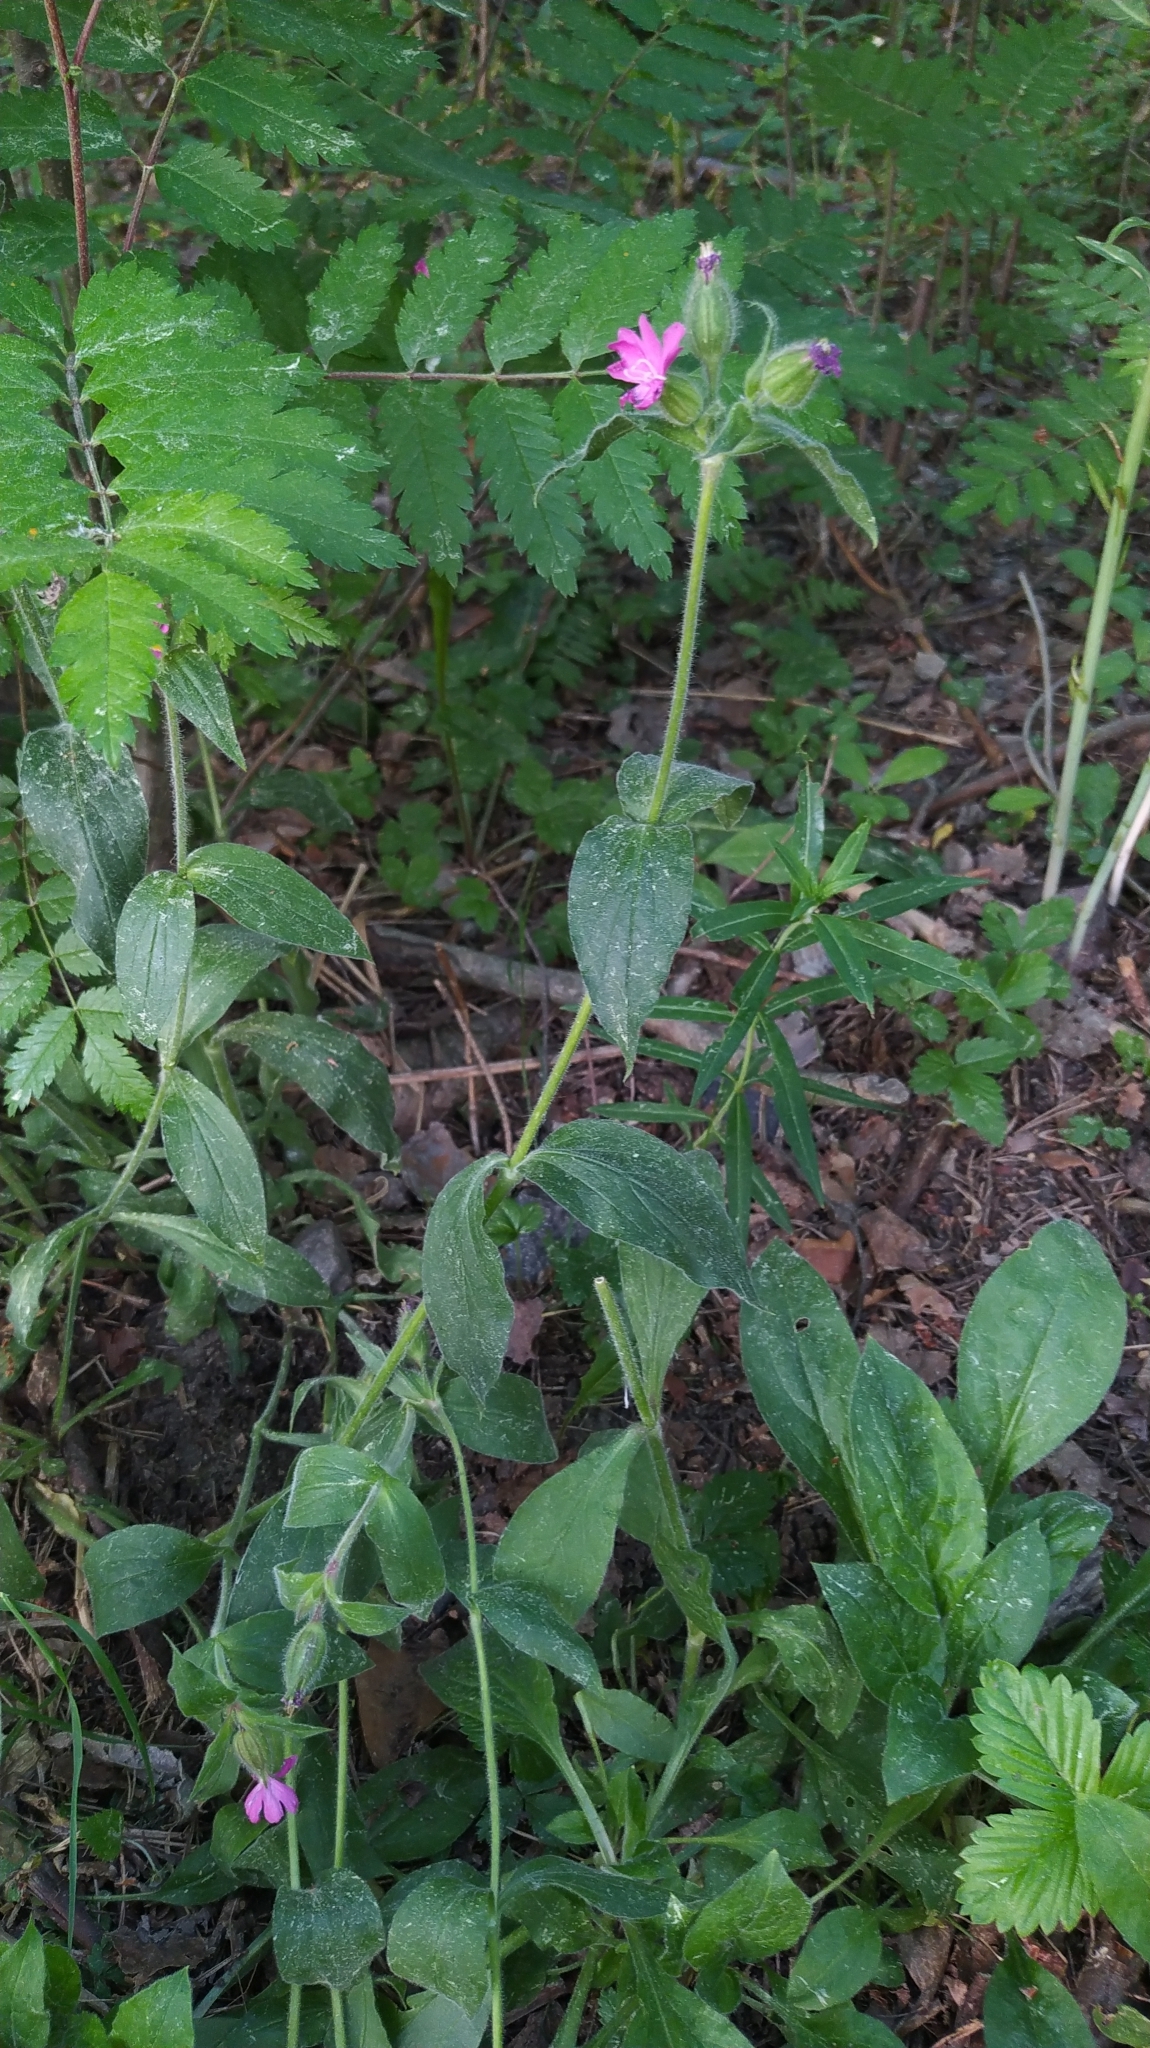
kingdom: Plantae
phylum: Tracheophyta
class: Magnoliopsida
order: Caryophyllales
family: Caryophyllaceae
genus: Silene
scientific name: Silene dioica
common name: Red campion
